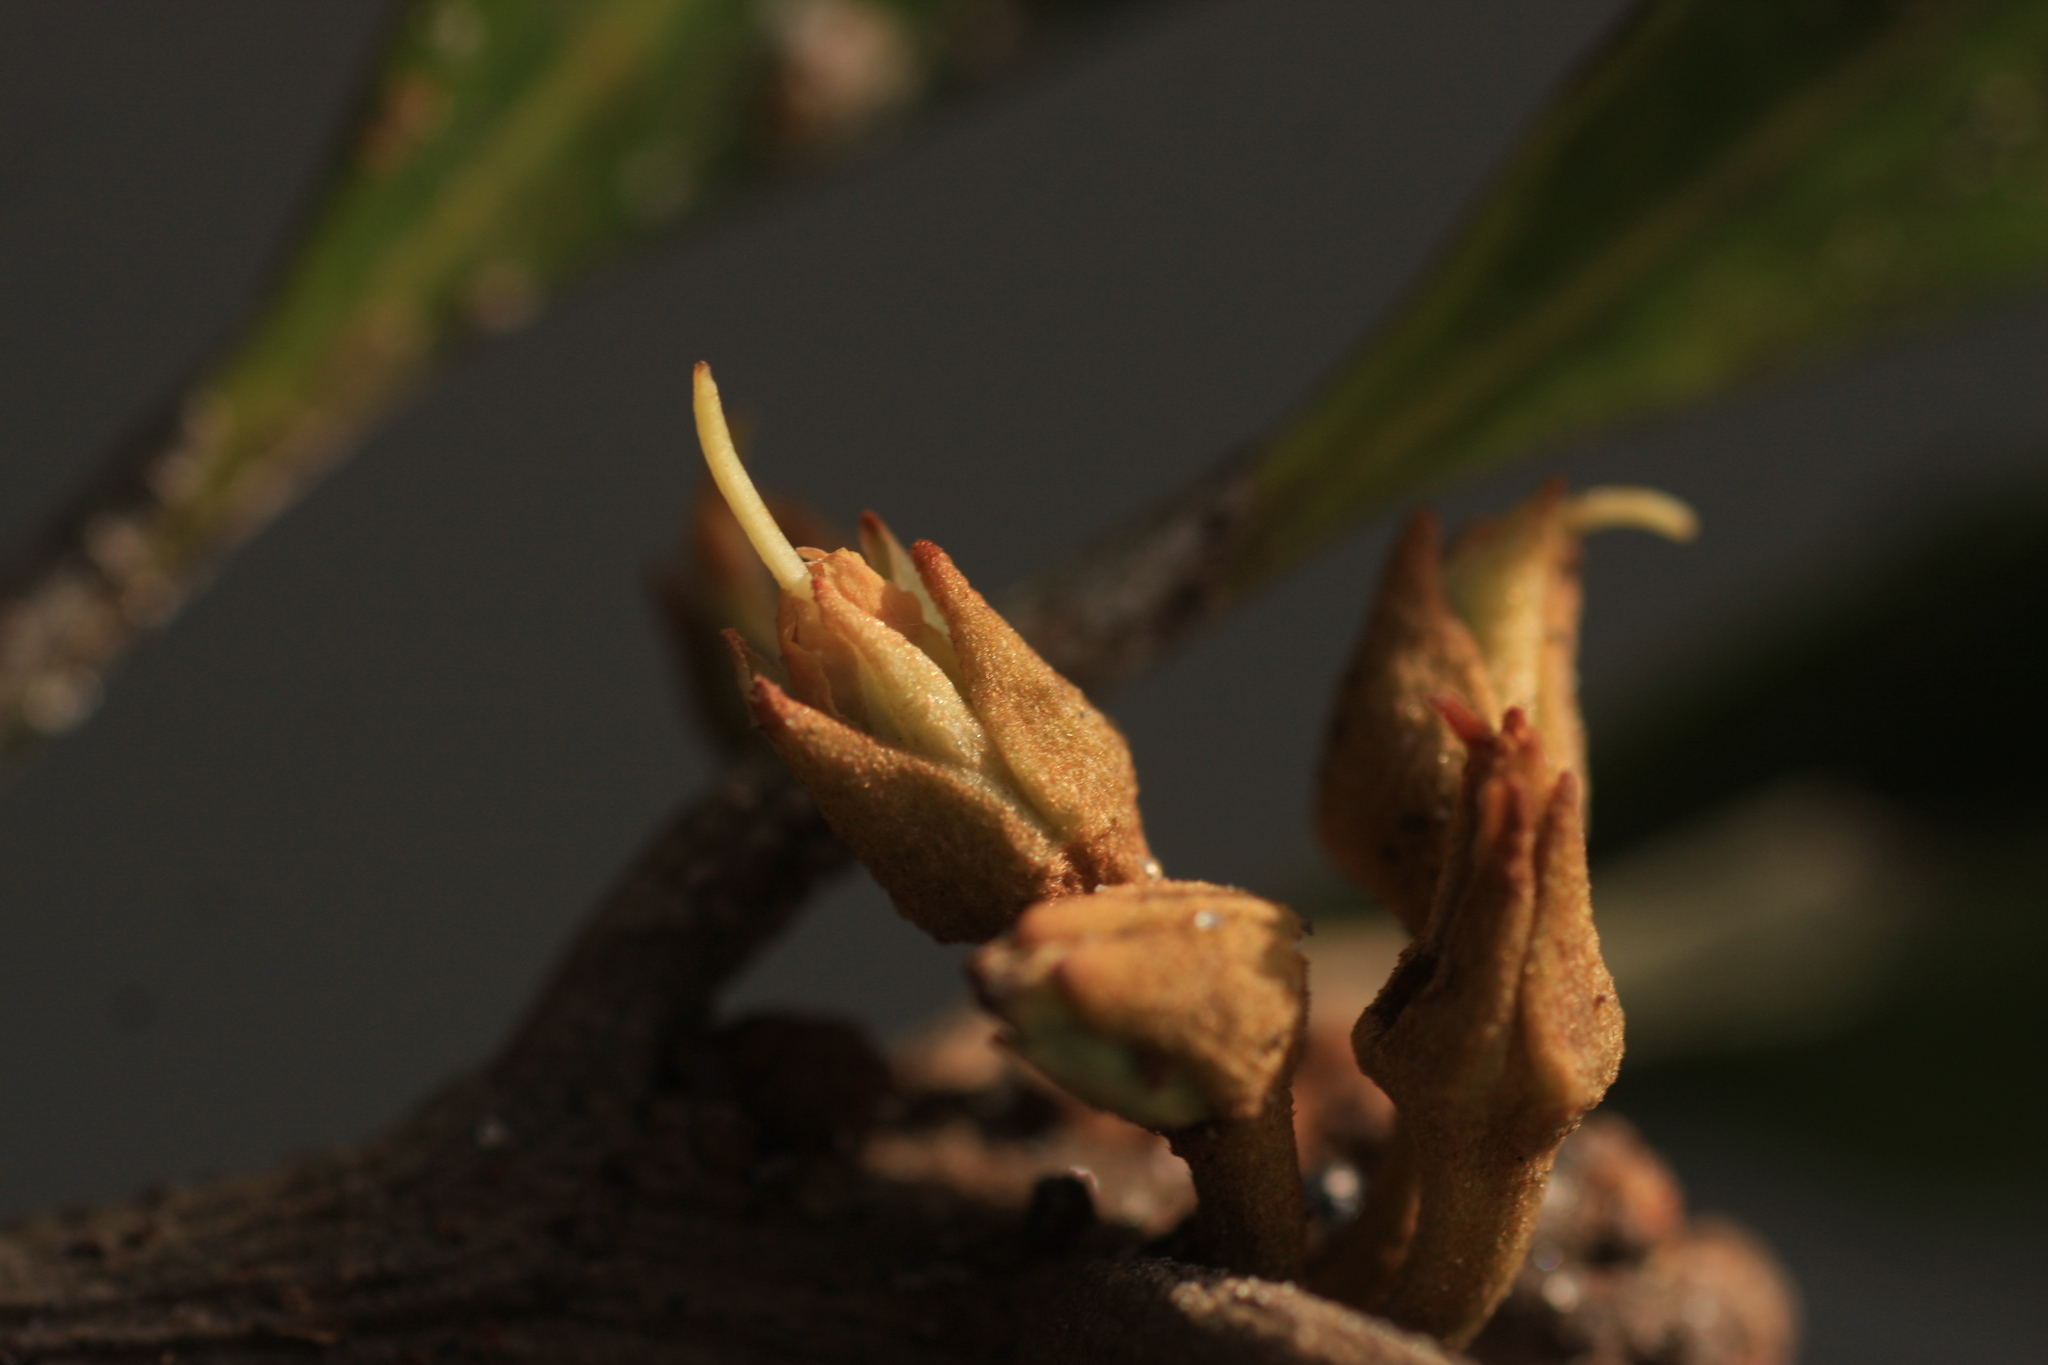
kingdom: Plantae
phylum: Tracheophyta
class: Magnoliopsida
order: Ericales
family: Sapotaceae
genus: Palaquium
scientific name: Palaquium ravii
